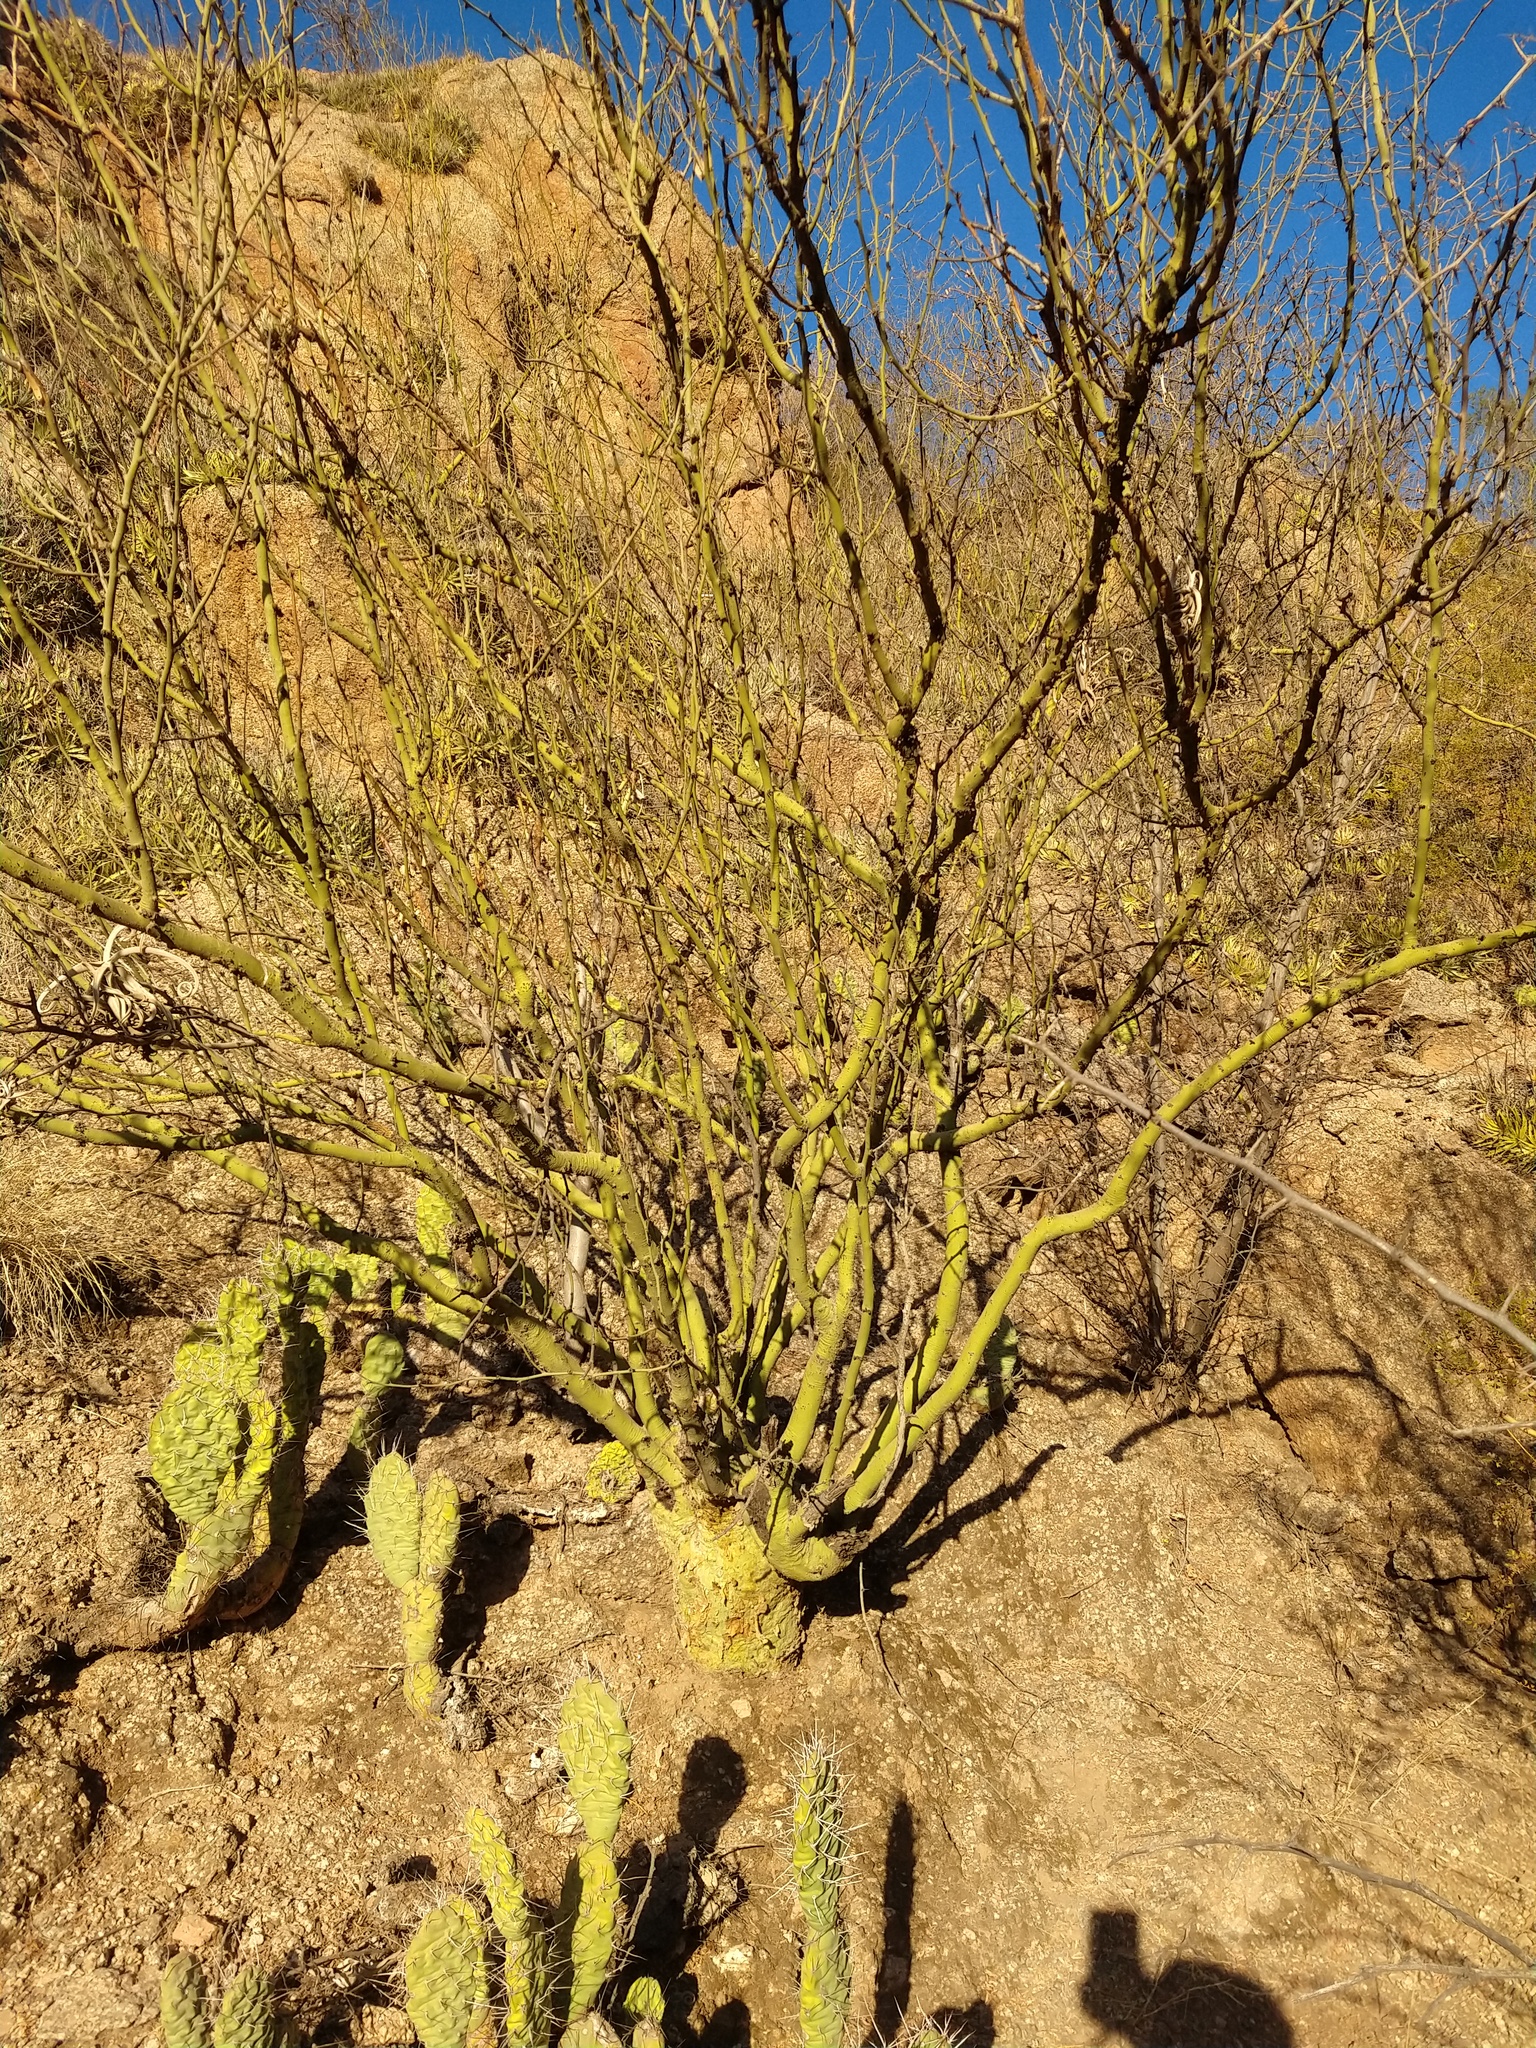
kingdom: Plantae
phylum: Tracheophyta
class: Magnoliopsida
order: Fabales
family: Fabaceae
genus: Parkinsonia
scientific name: Parkinsonia praecox
